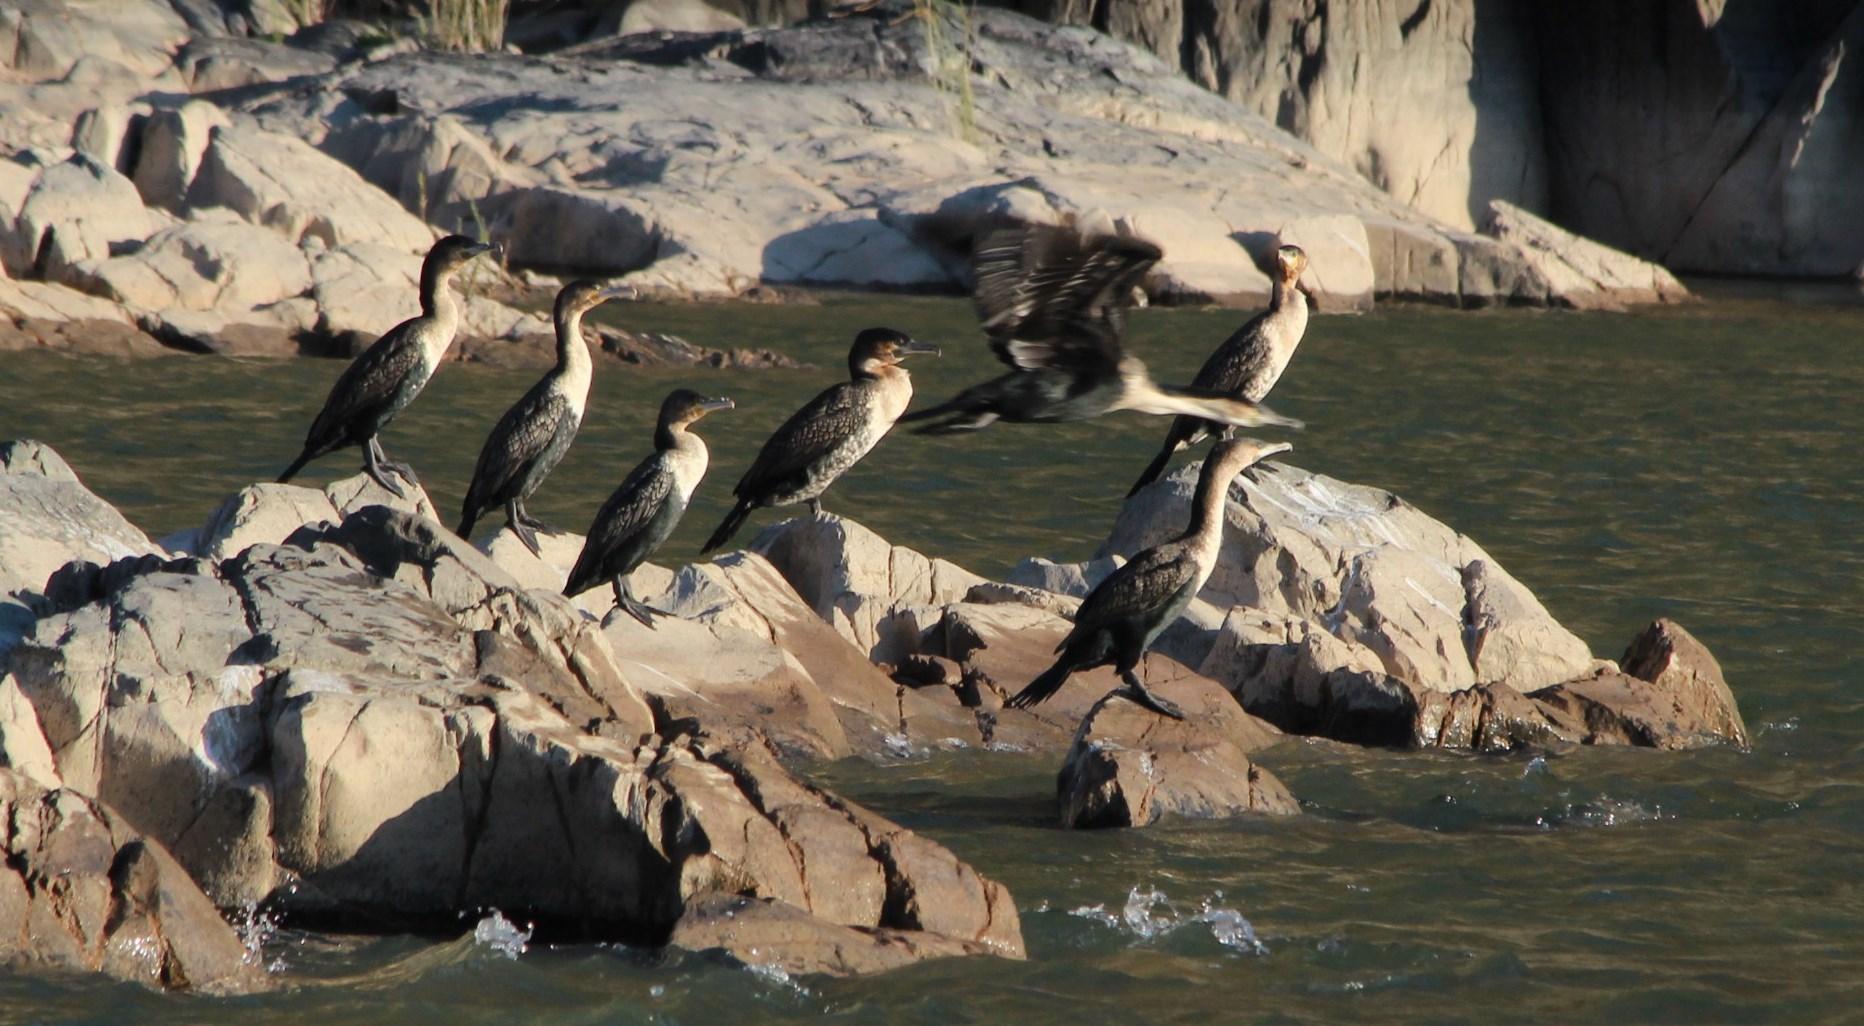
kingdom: Animalia
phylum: Chordata
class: Aves
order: Suliformes
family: Phalacrocoracidae
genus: Phalacrocorax
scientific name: Phalacrocorax carbo
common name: Great cormorant
